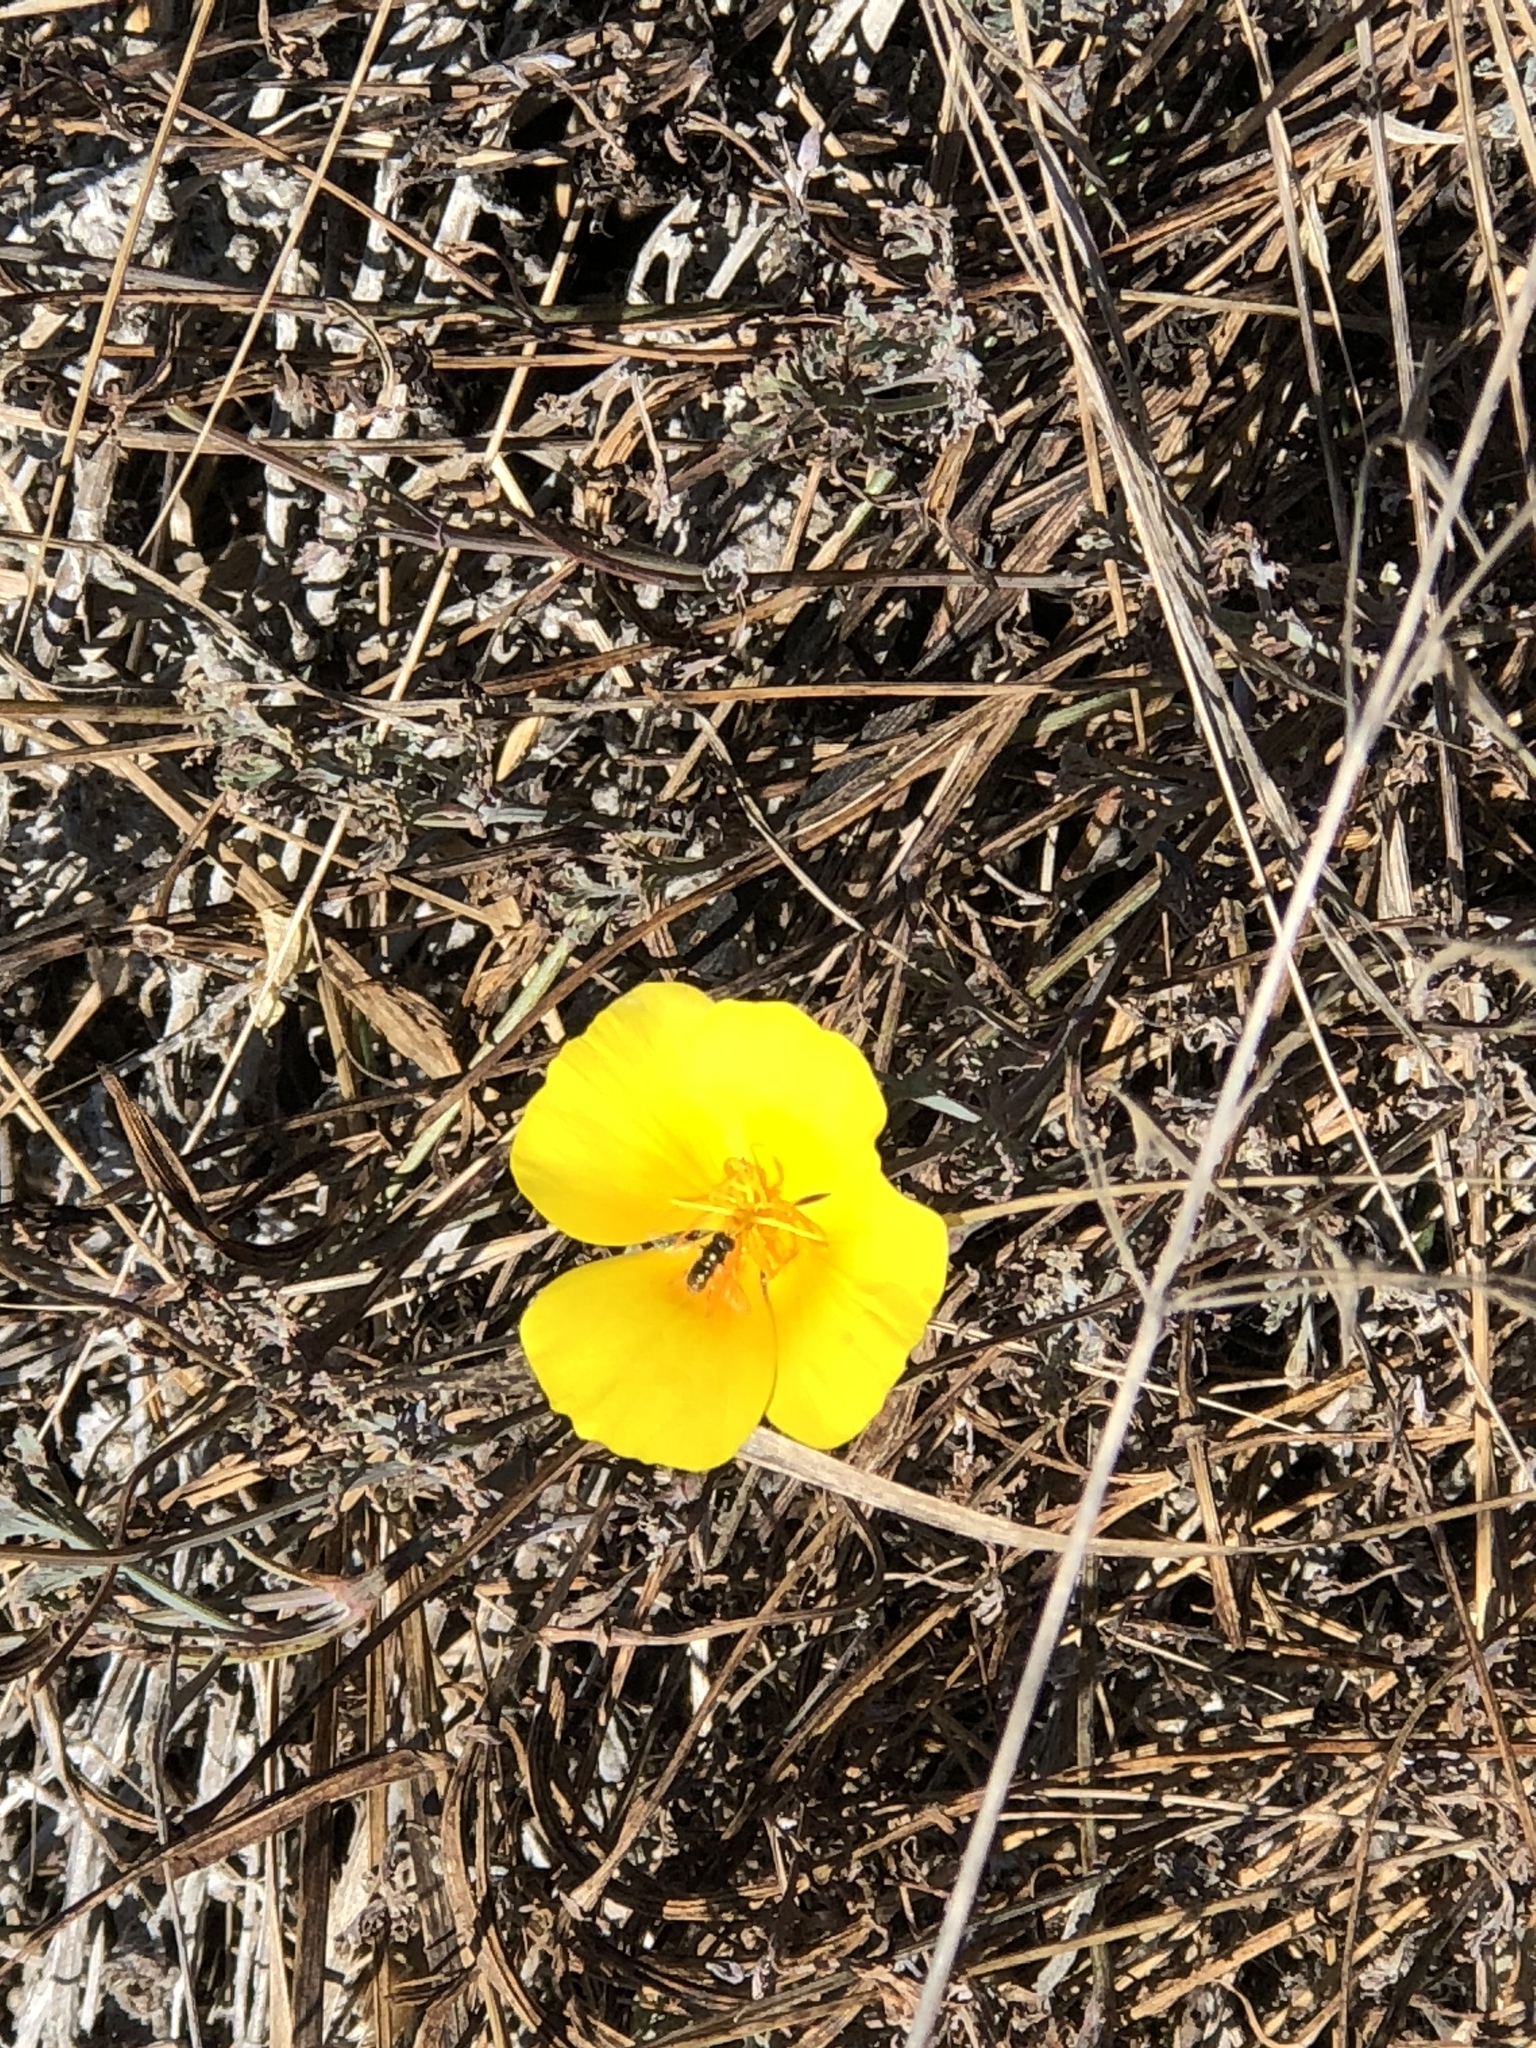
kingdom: Plantae
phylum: Tracheophyta
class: Magnoliopsida
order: Ranunculales
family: Papaveraceae
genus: Eschscholzia
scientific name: Eschscholzia californica
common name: California poppy
